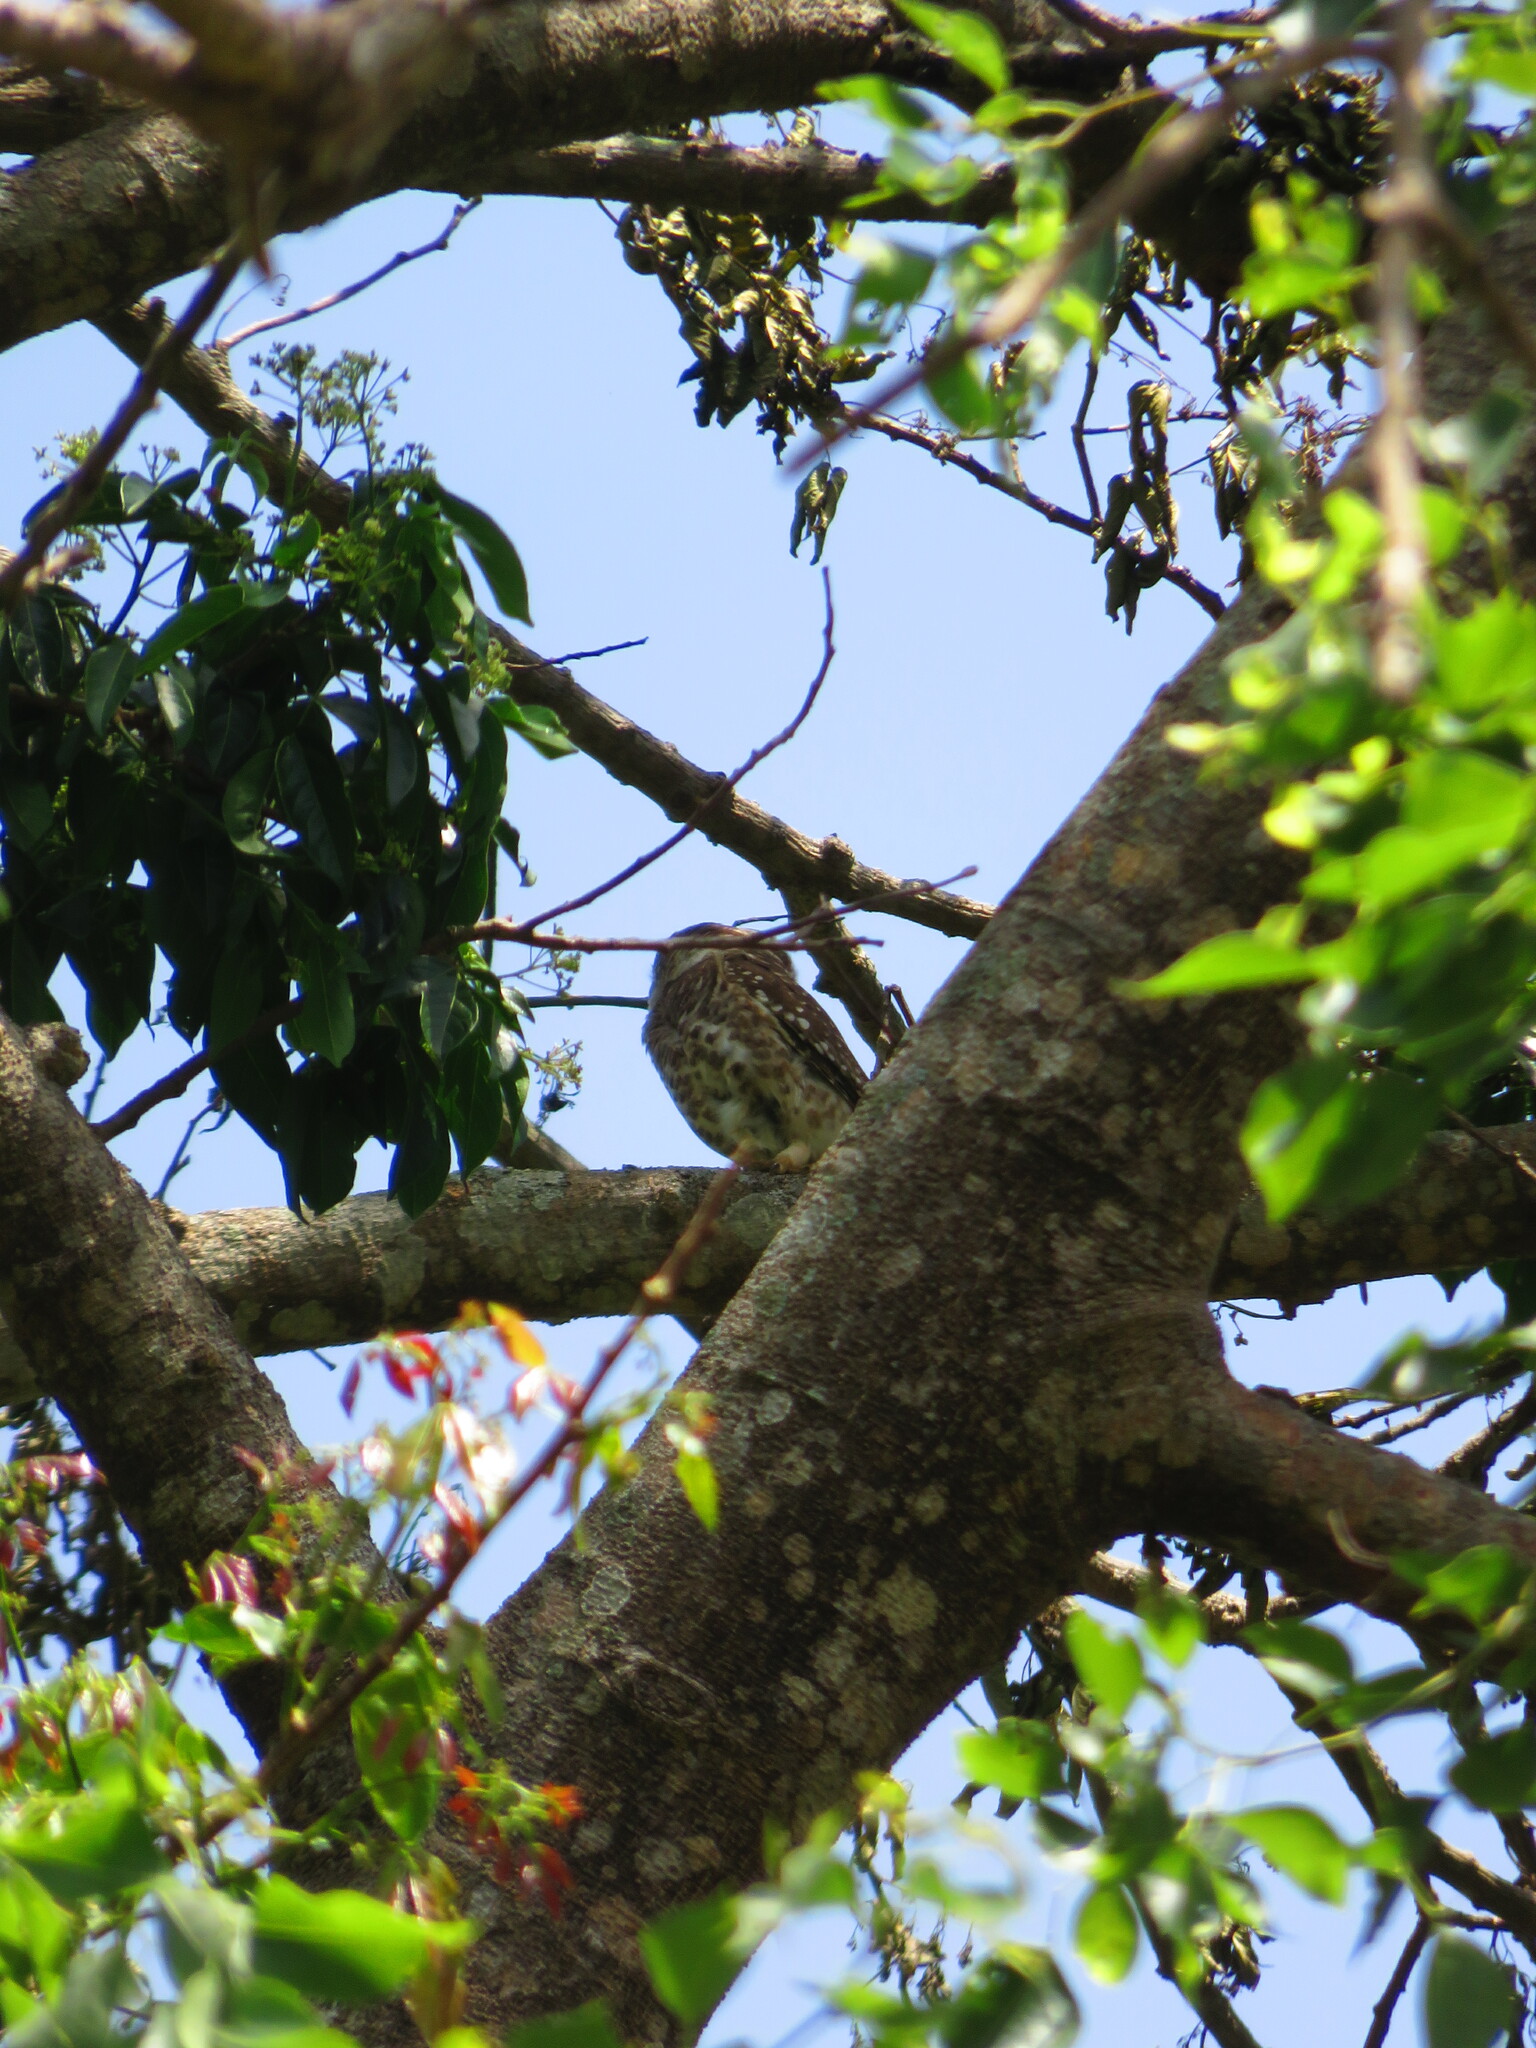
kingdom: Animalia
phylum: Chordata
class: Aves
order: Strigiformes
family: Strigidae
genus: Athene
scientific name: Athene brama
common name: Spotted owlet
